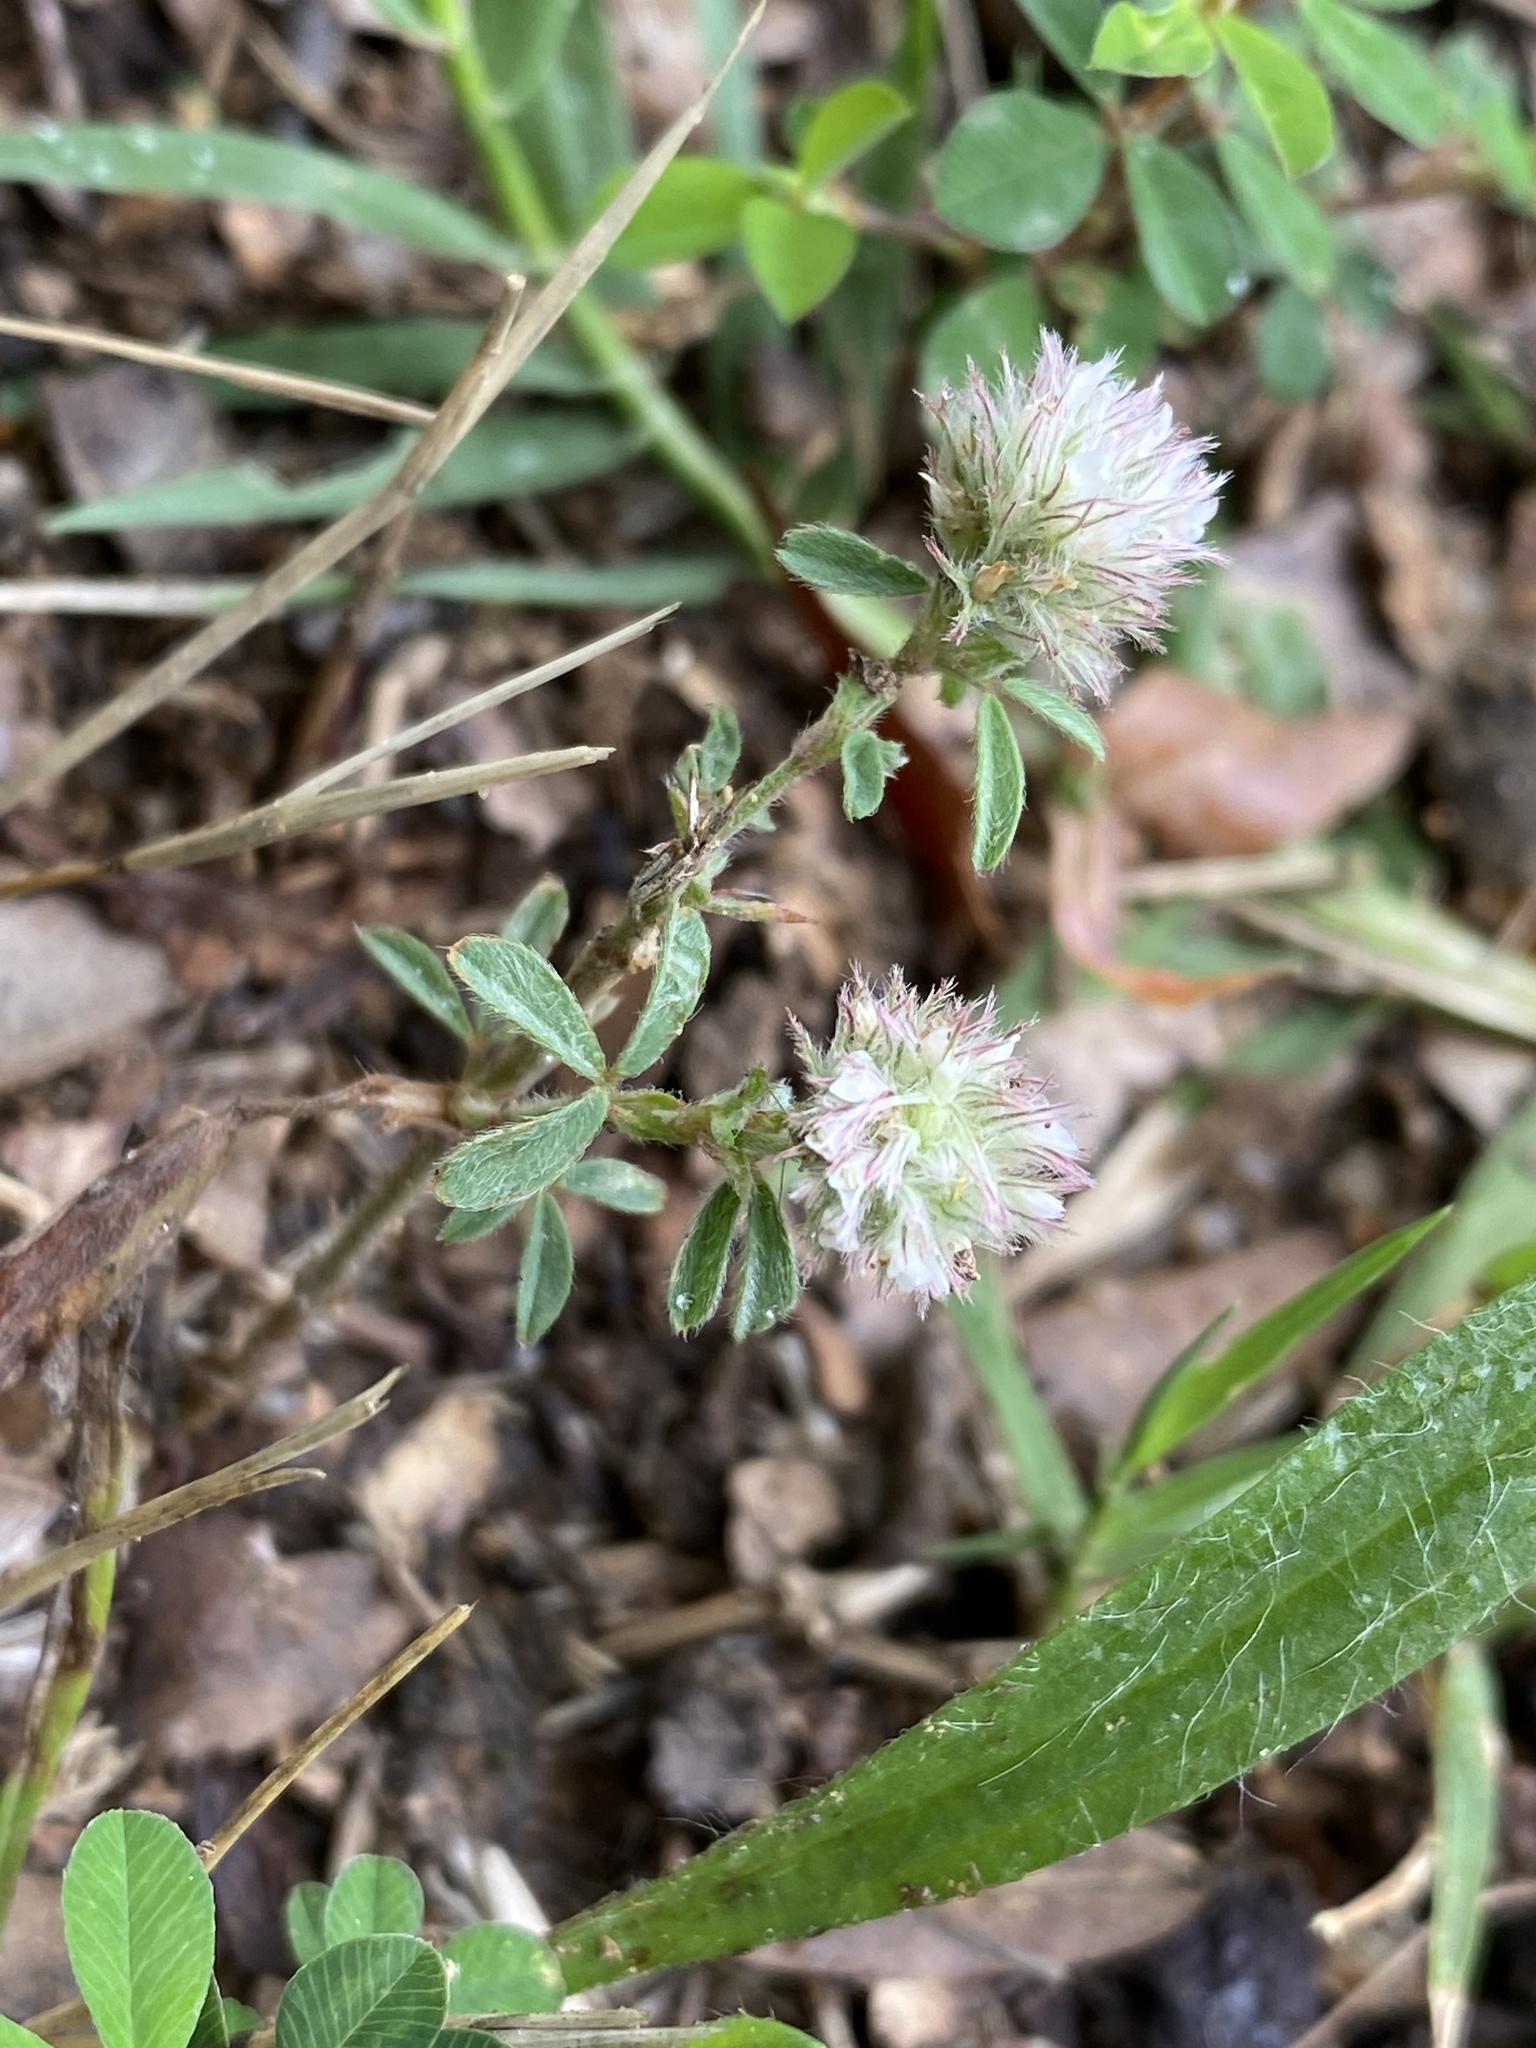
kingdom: Plantae
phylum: Tracheophyta
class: Magnoliopsida
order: Fabales
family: Fabaceae
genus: Trifolium
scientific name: Trifolium arvense
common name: Hare's-foot clover
